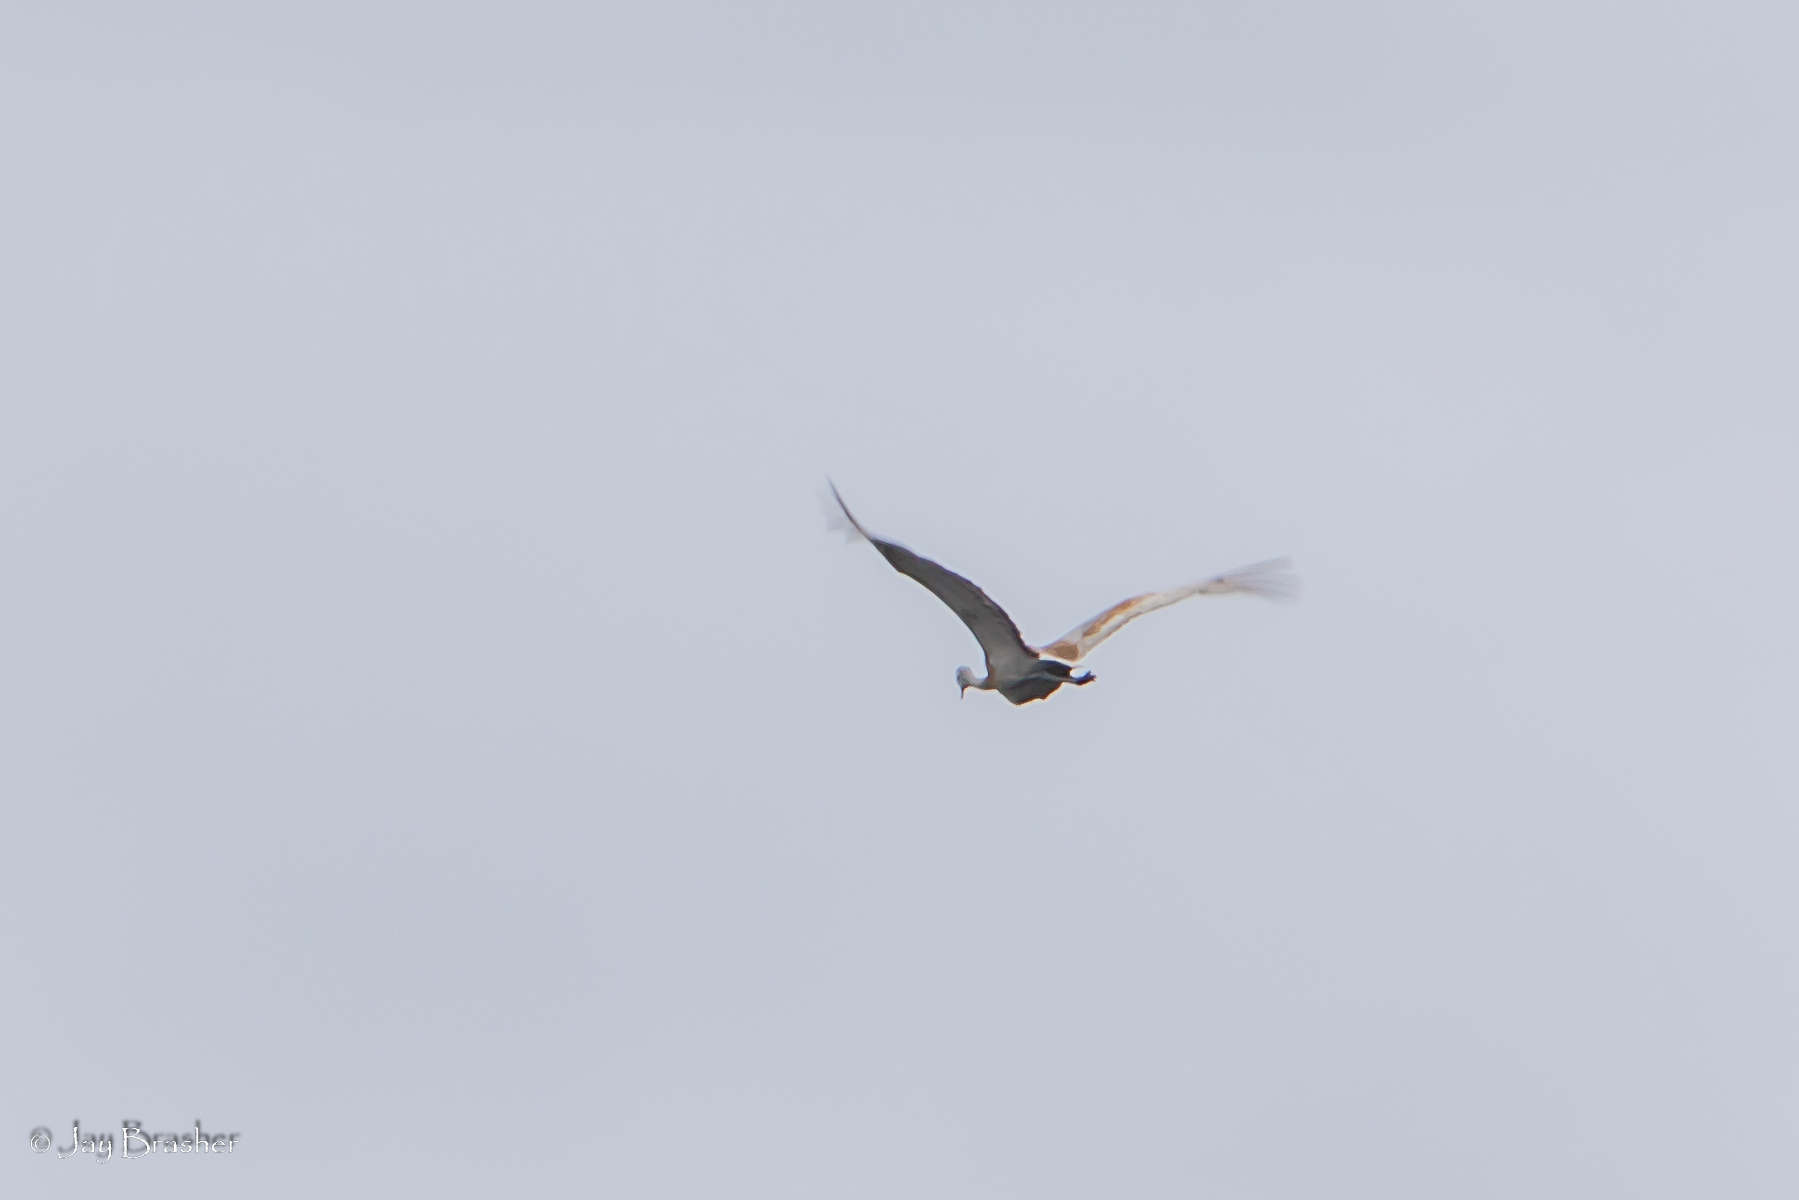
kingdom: Animalia
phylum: Chordata
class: Aves
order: Gruiformes
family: Gruidae
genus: Grus
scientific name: Grus canadensis
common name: Sandhill crane
